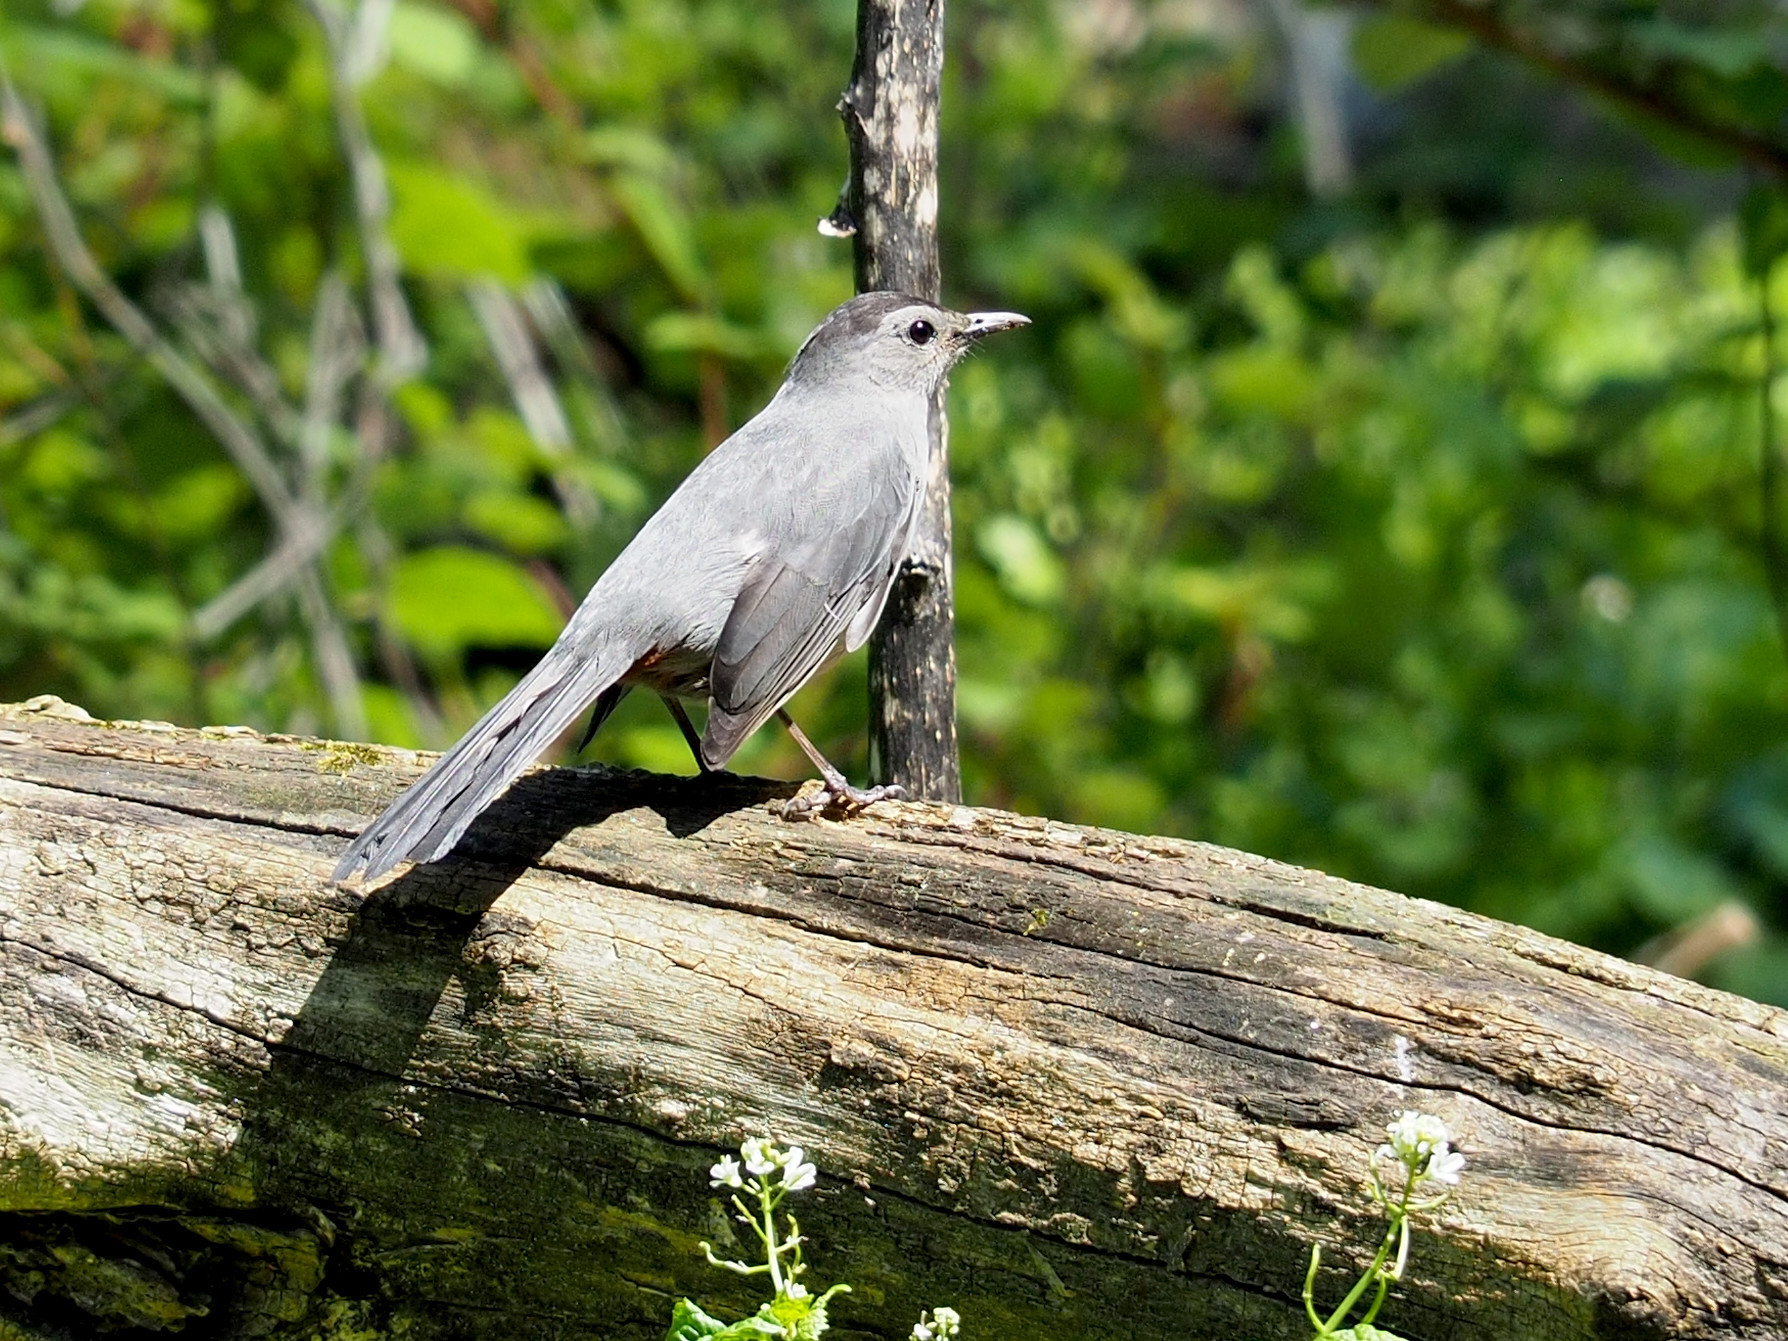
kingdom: Animalia
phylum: Chordata
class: Aves
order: Passeriformes
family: Mimidae
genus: Dumetella
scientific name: Dumetella carolinensis
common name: Gray catbird
